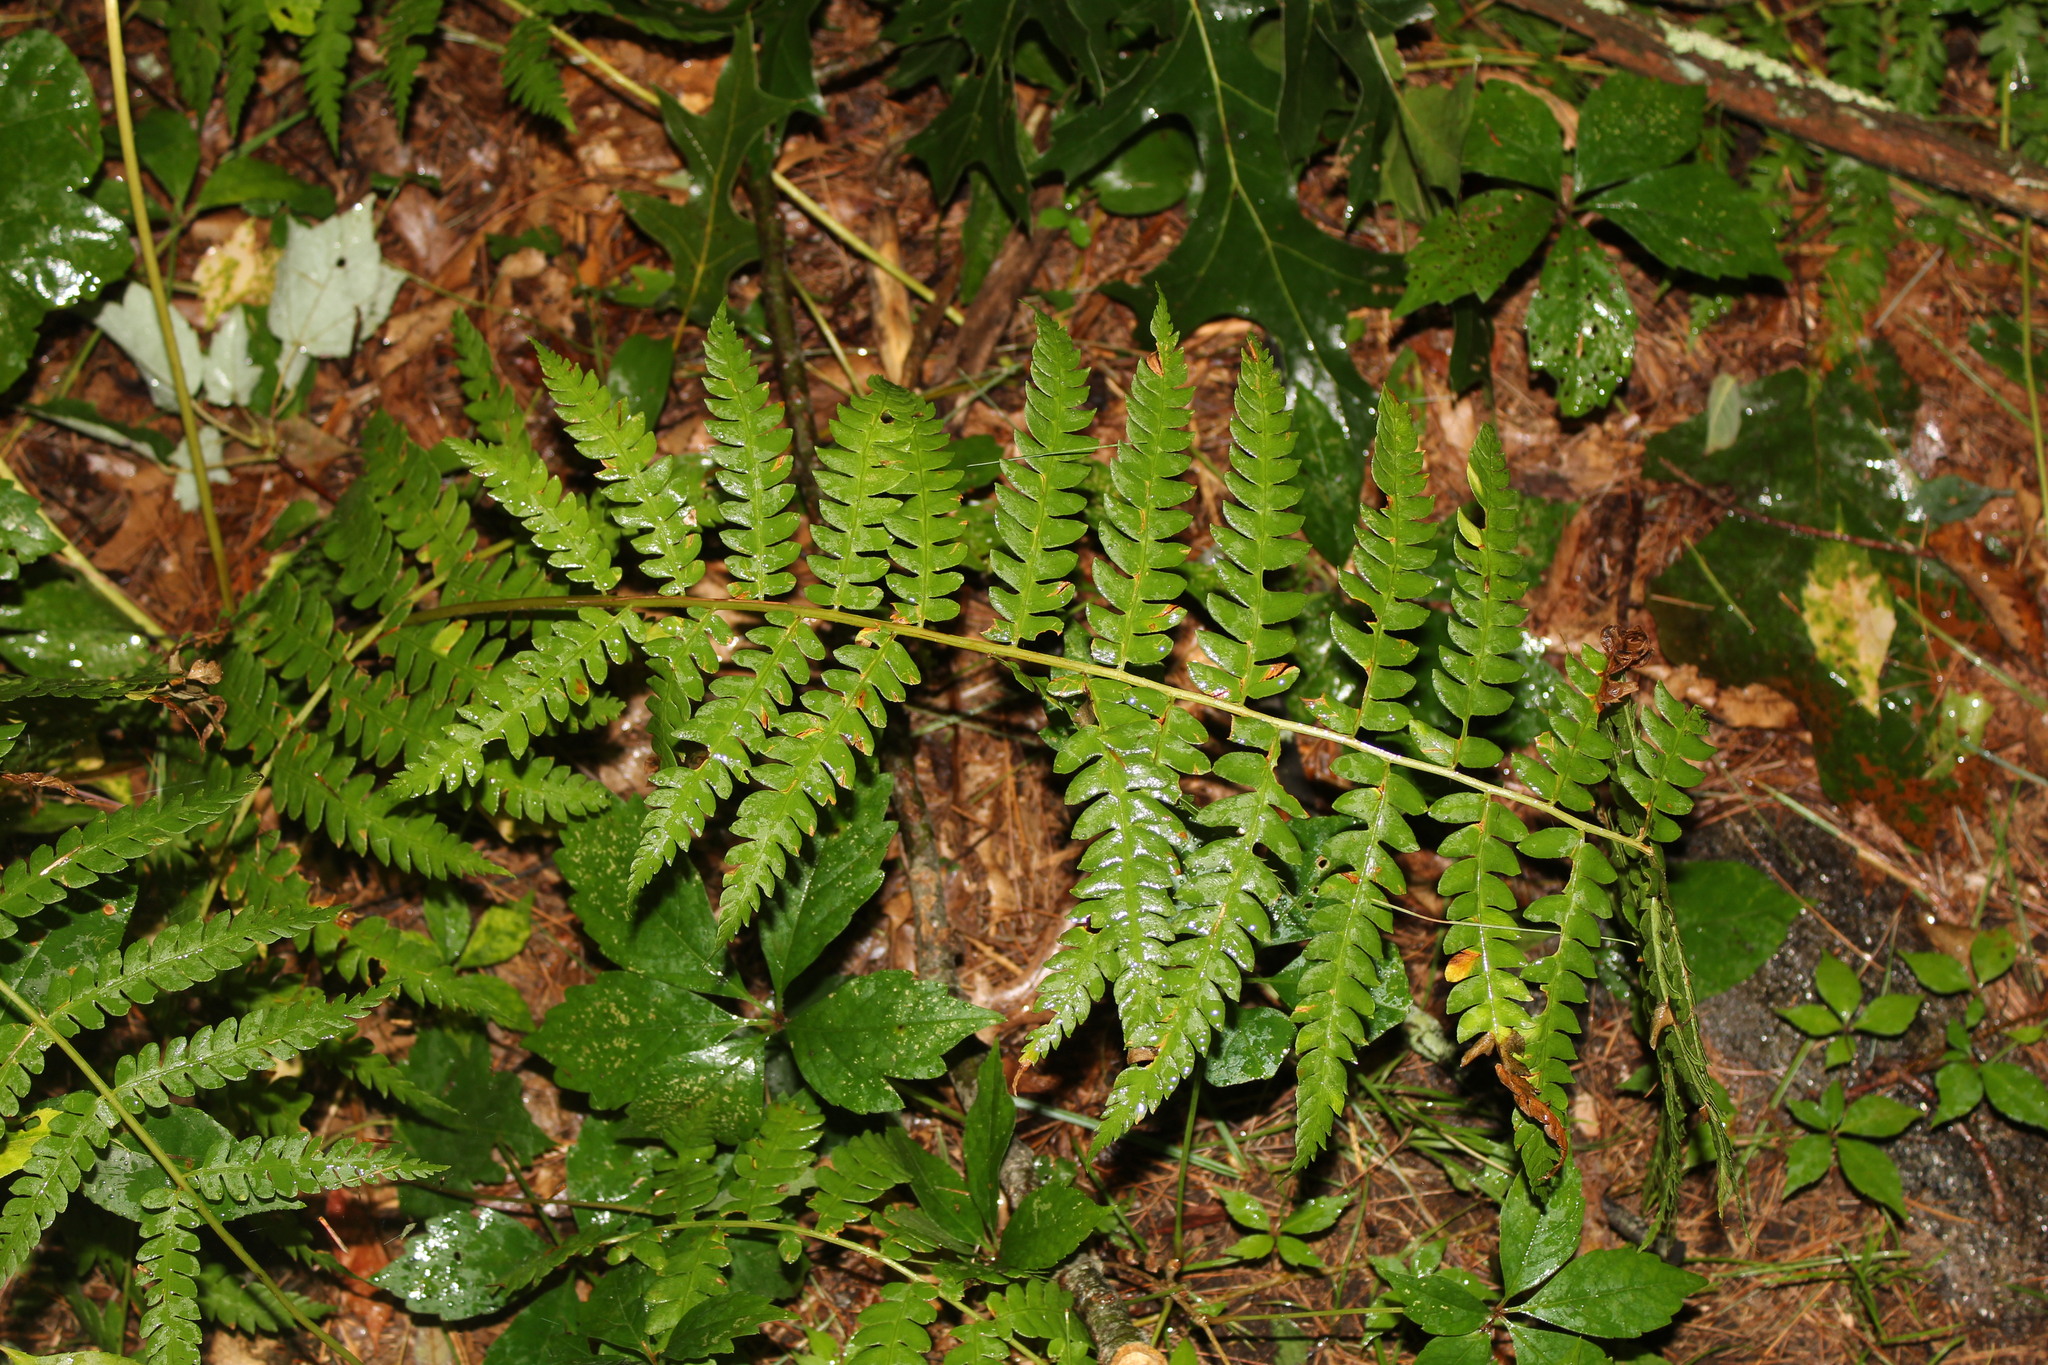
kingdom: Plantae
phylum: Tracheophyta
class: Polypodiopsida
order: Osmundales
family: Osmundaceae
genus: Osmundastrum
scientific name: Osmundastrum cinnamomeum
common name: Cinnamon fern
